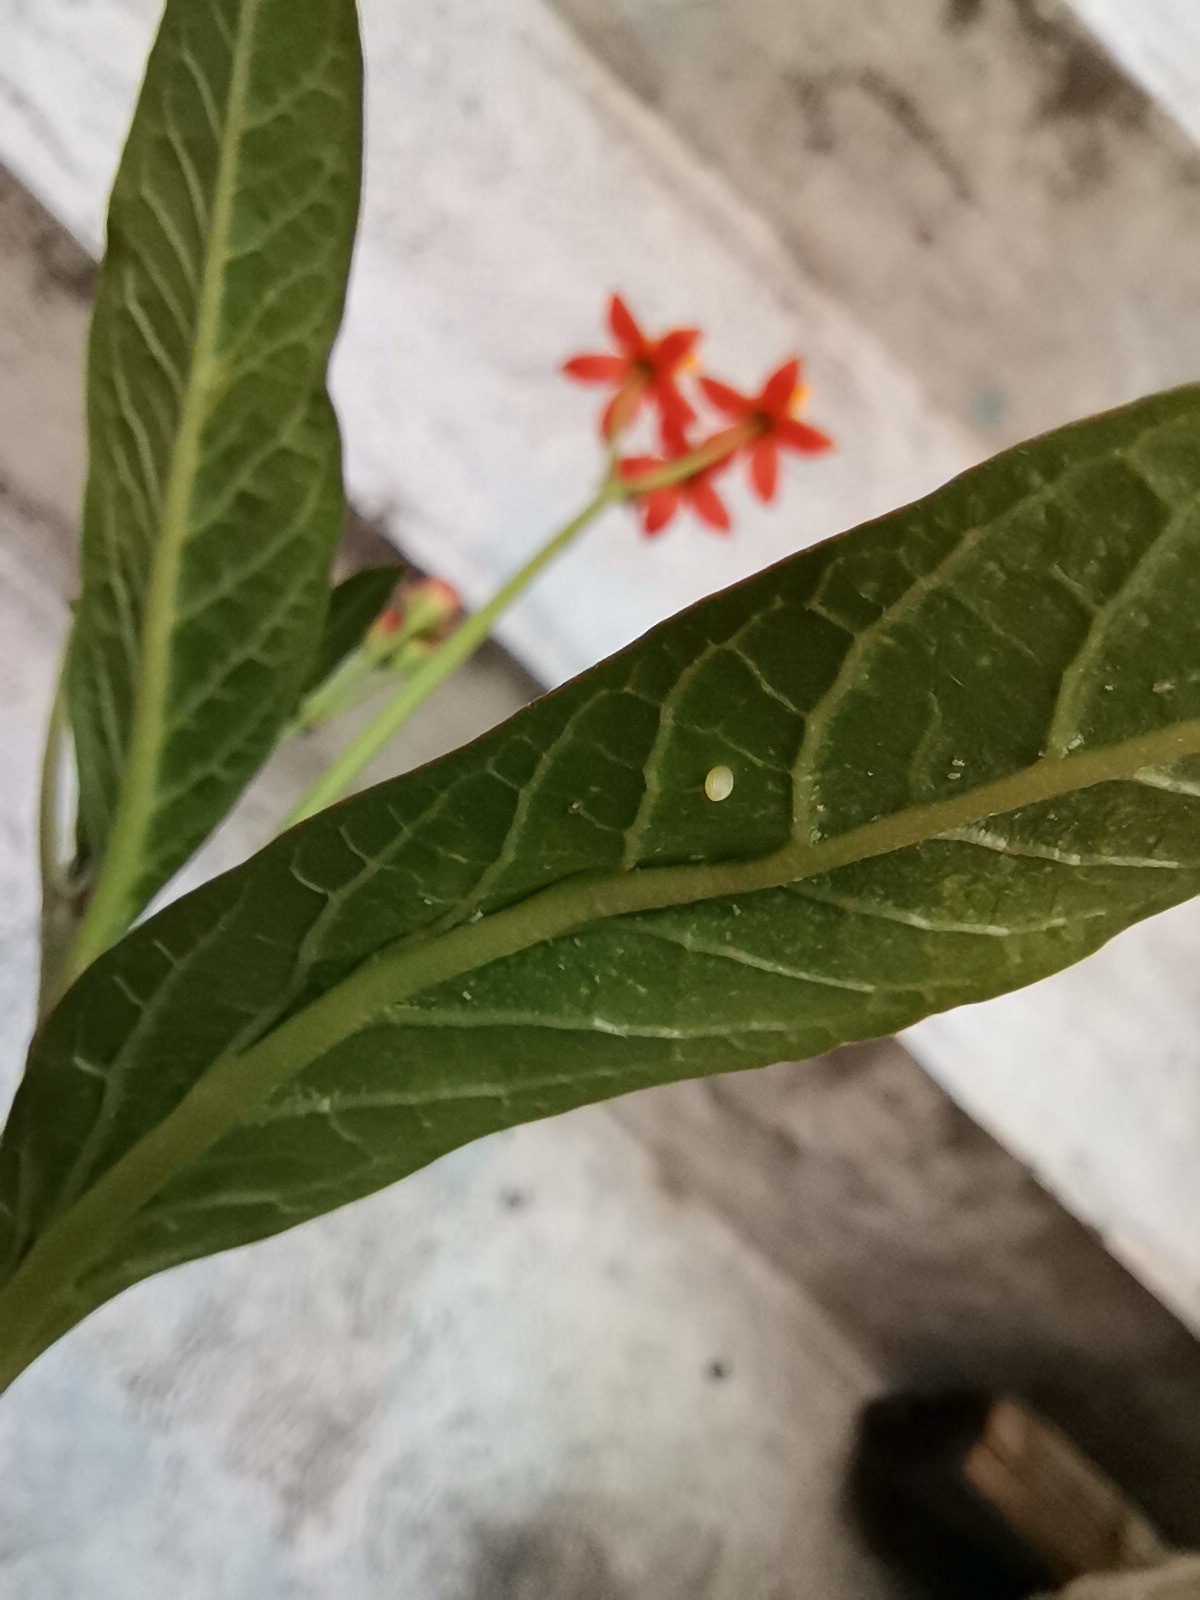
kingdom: Animalia
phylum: Arthropoda
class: Insecta
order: Lepidoptera
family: Nymphalidae
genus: Danaus
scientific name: Danaus plexippus
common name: Monarch
